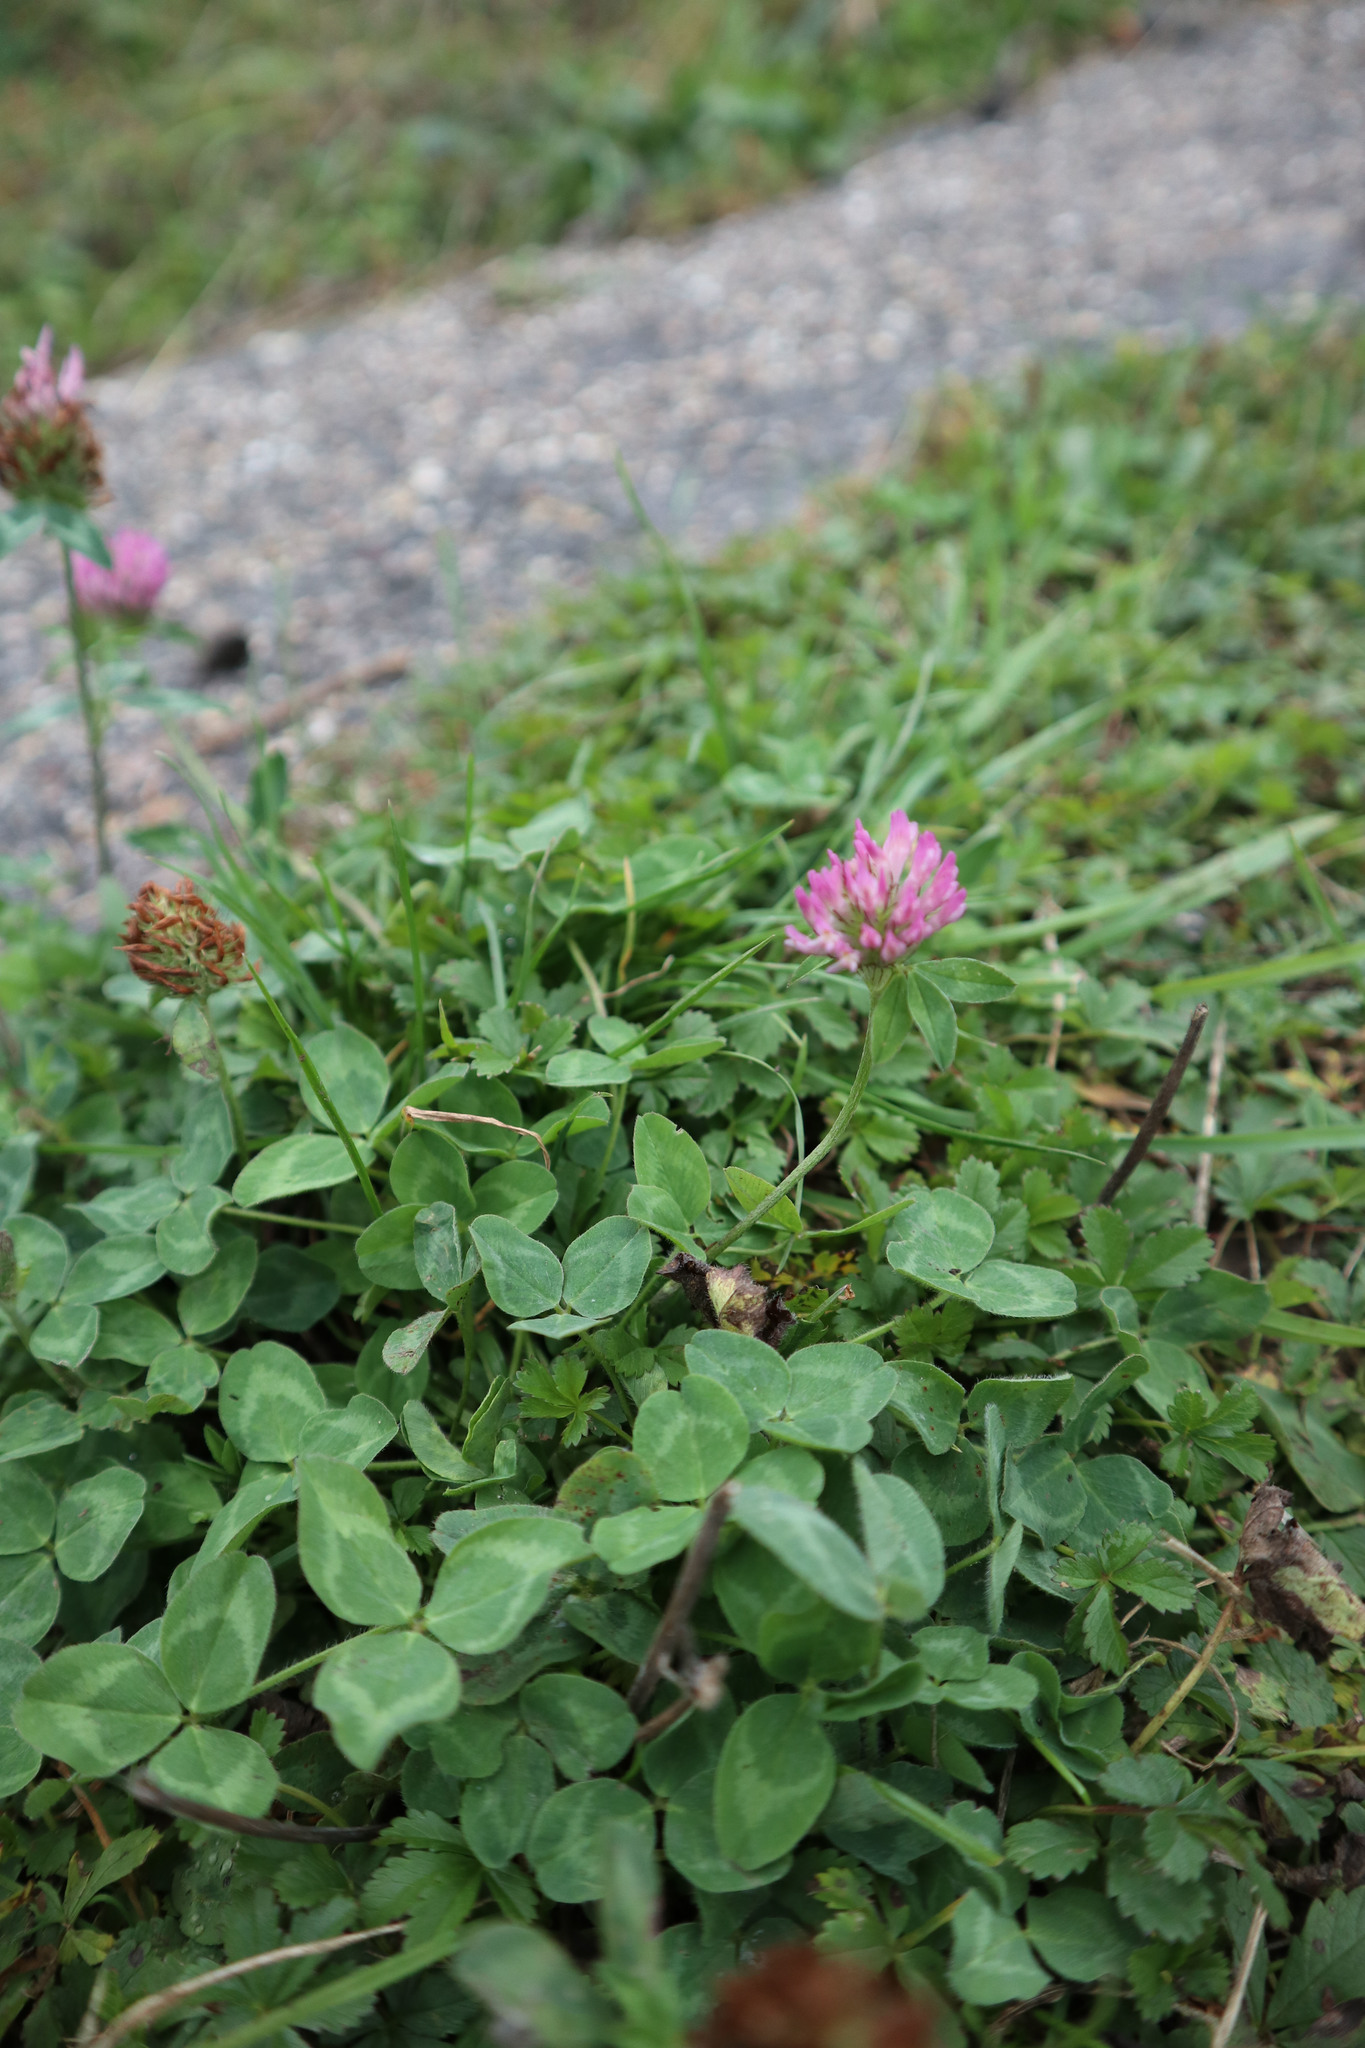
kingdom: Plantae
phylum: Tracheophyta
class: Magnoliopsida
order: Fabales
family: Fabaceae
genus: Trifolium
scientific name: Trifolium pratense
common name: Red clover
